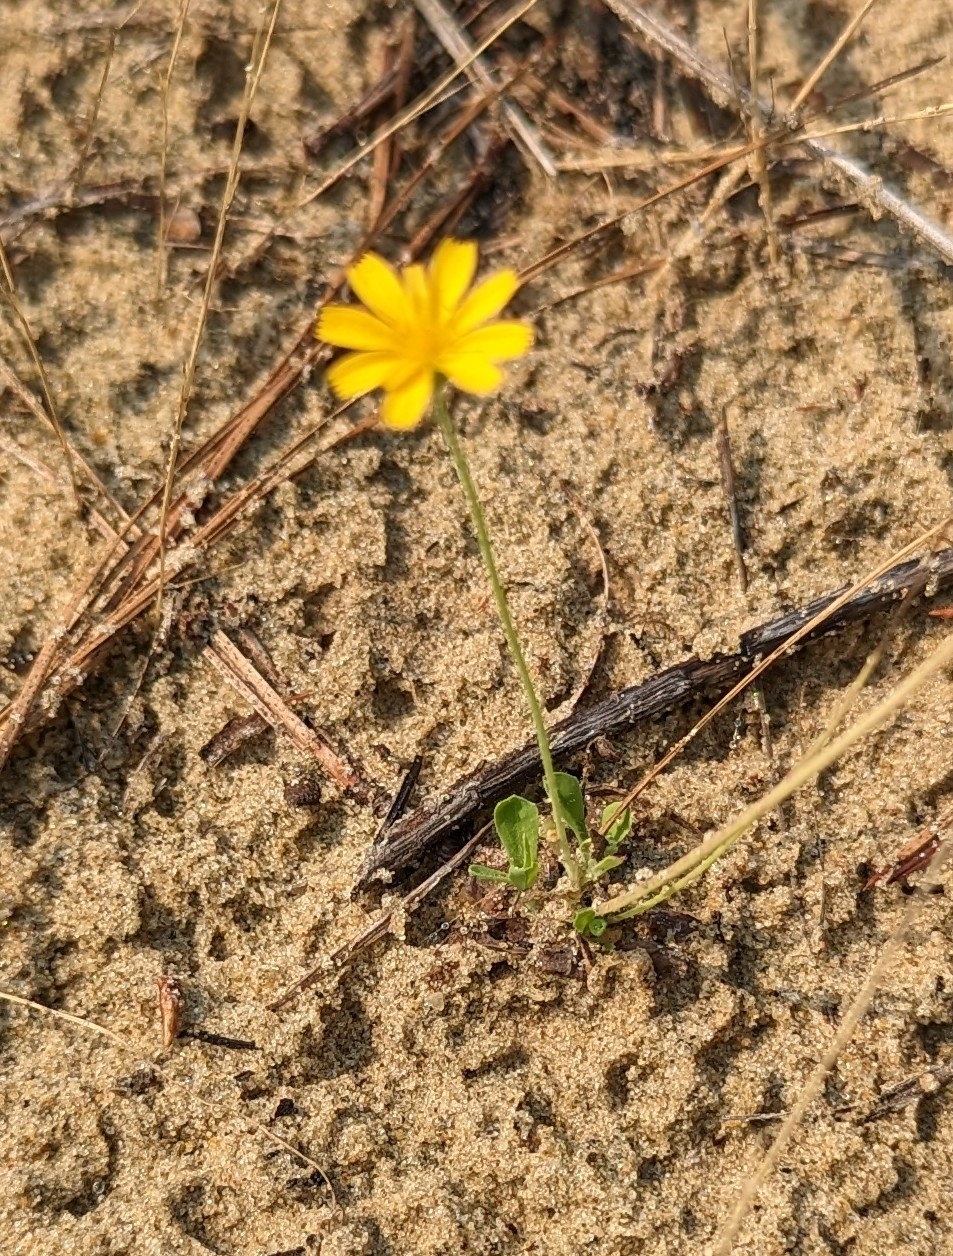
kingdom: Plantae
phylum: Tracheophyta
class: Magnoliopsida
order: Asterales
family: Asteraceae
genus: Krigia
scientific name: Krigia virginica
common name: Virginia dwarf-dandelion
